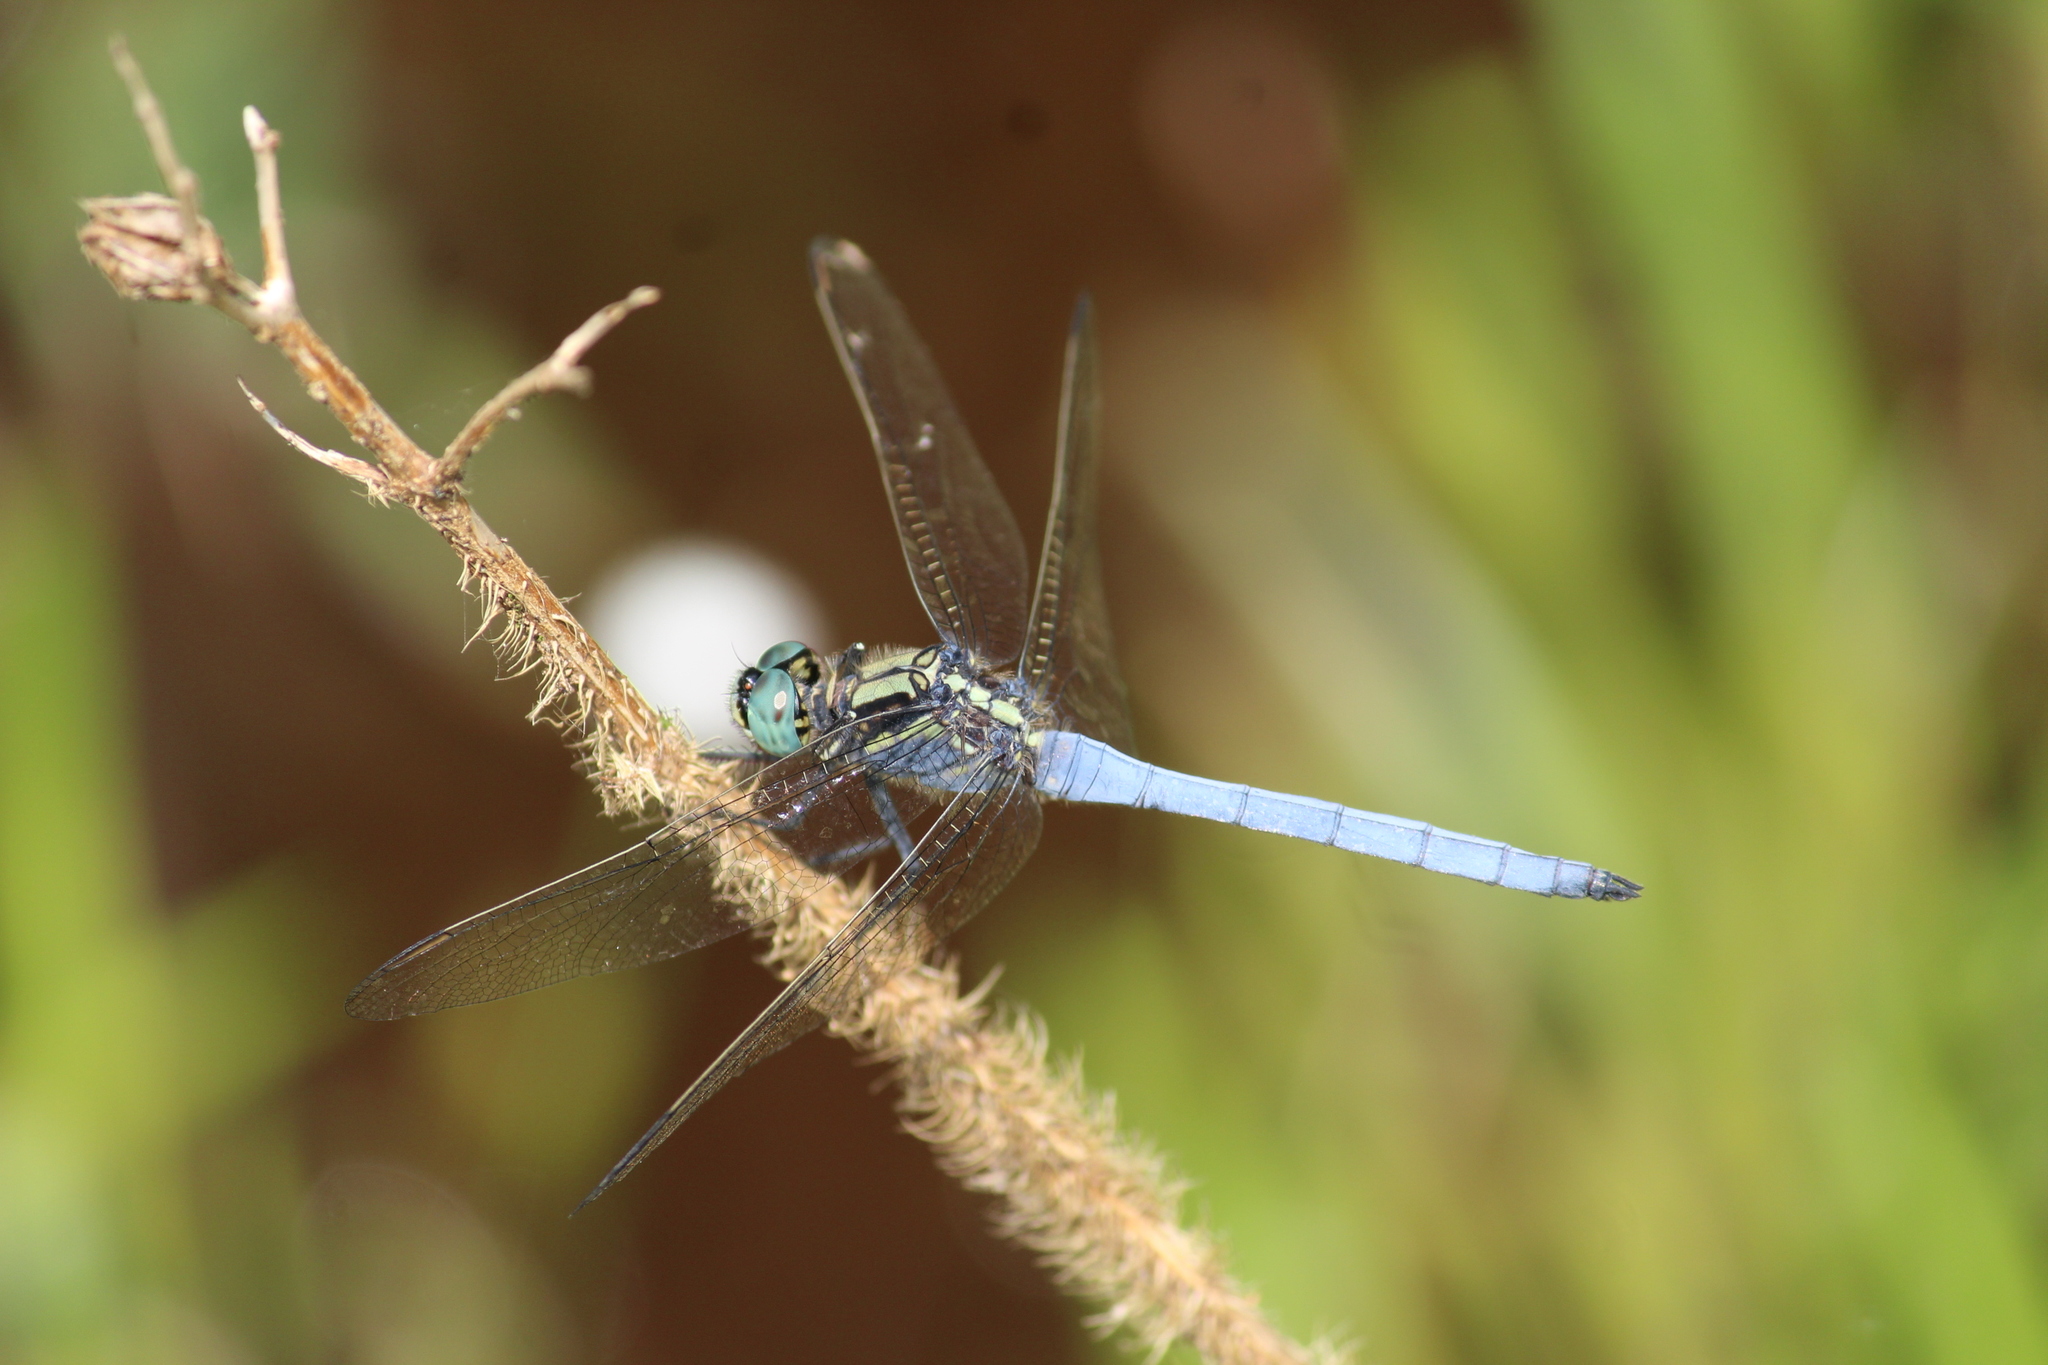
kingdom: Animalia
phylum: Arthropoda
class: Insecta
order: Odonata
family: Libellulidae
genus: Orthetrum
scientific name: Orthetrum luzonicum
